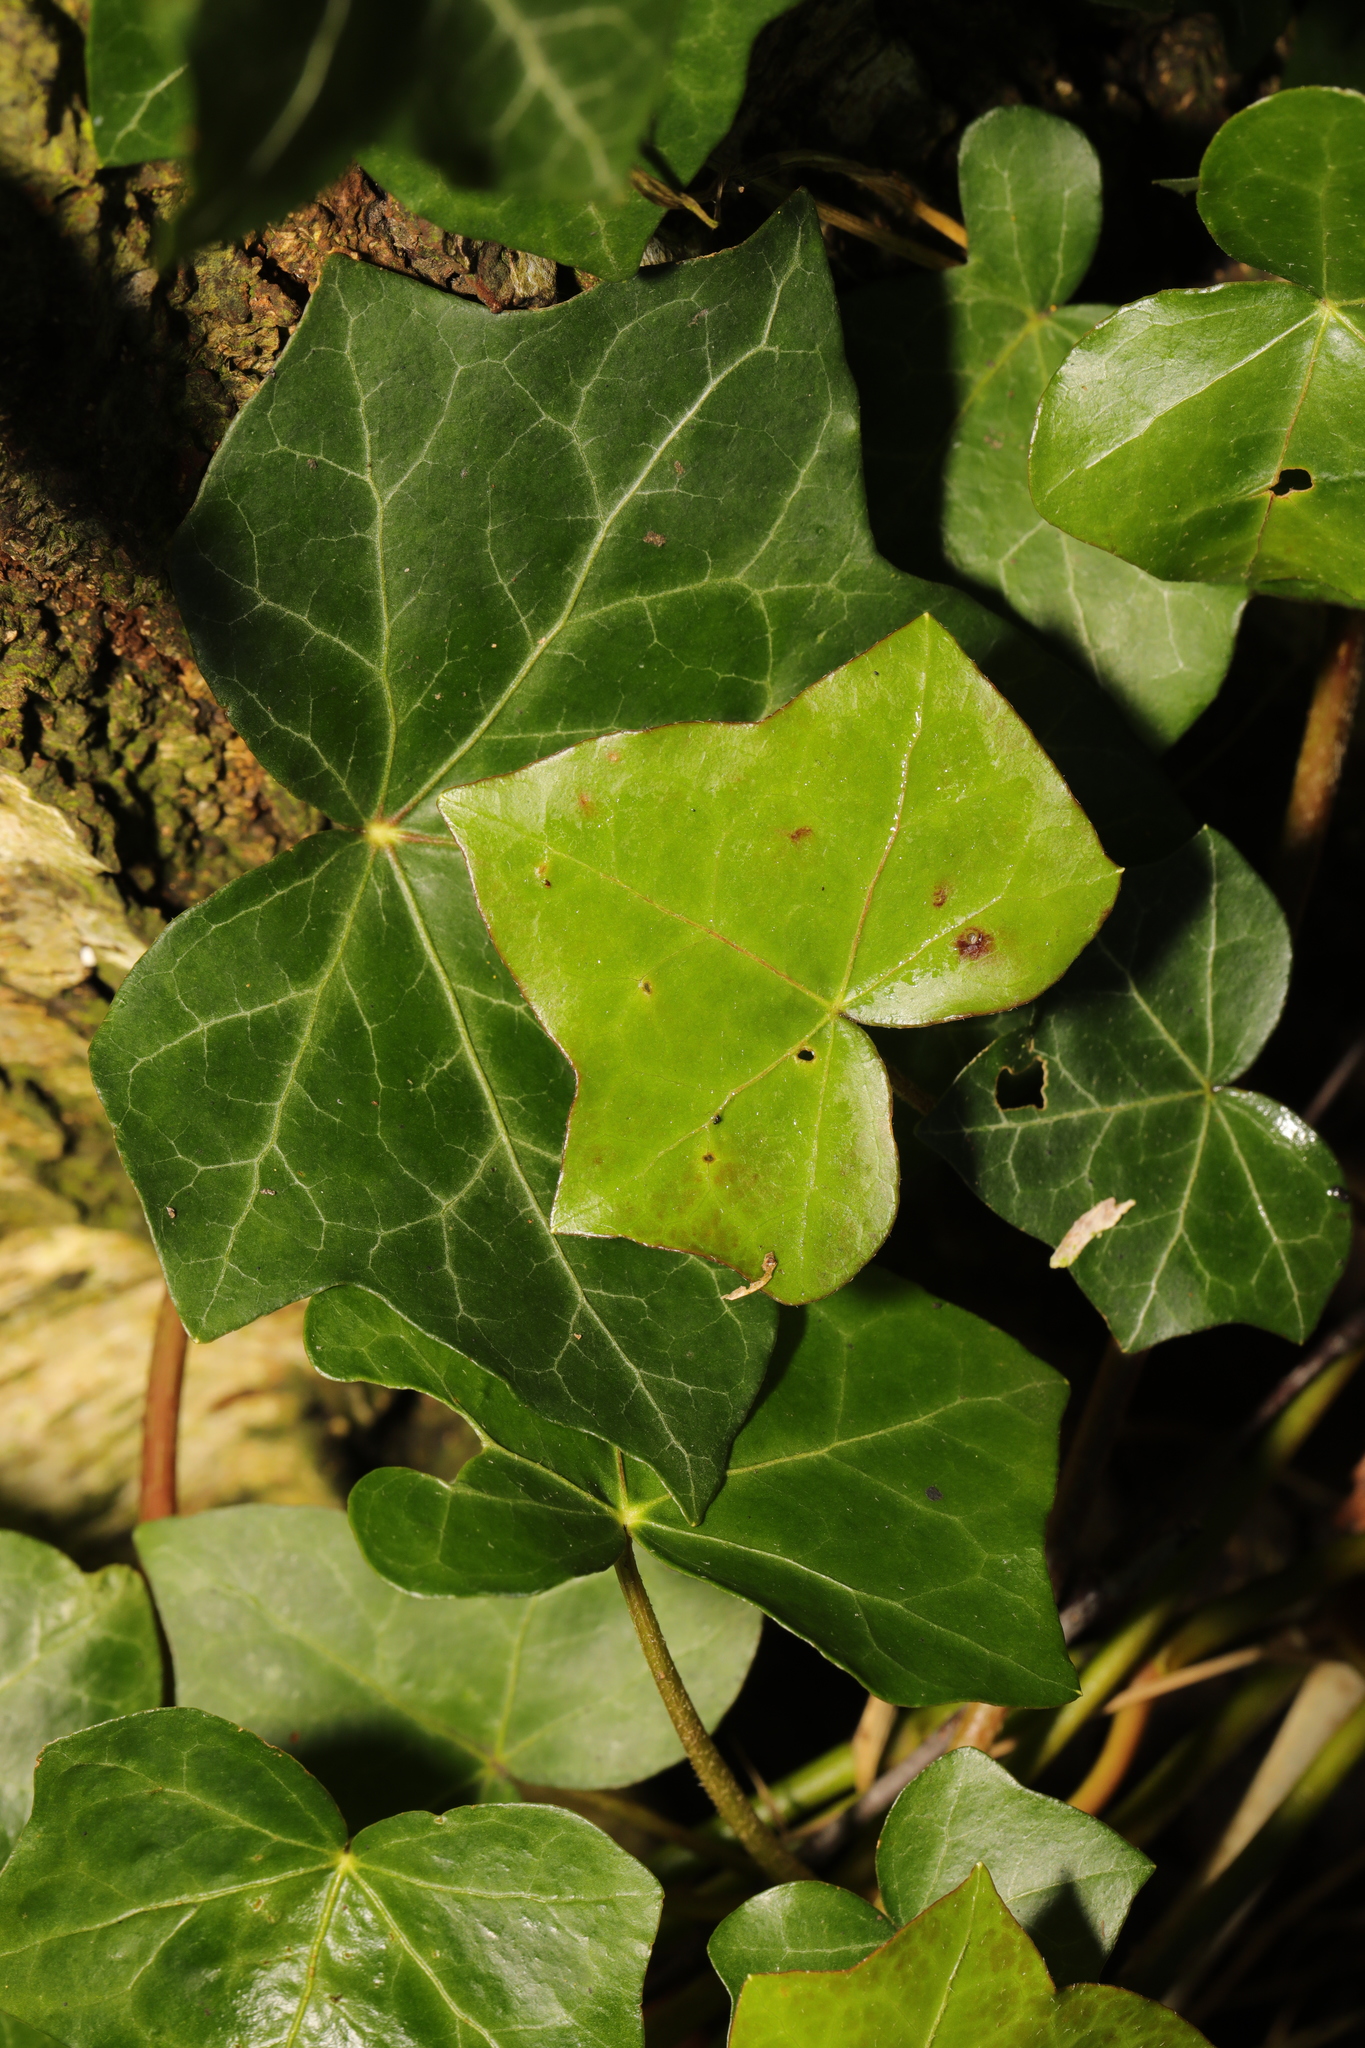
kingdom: Plantae
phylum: Tracheophyta
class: Magnoliopsida
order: Apiales
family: Araliaceae
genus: Hedera
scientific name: Hedera helix
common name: Ivy
